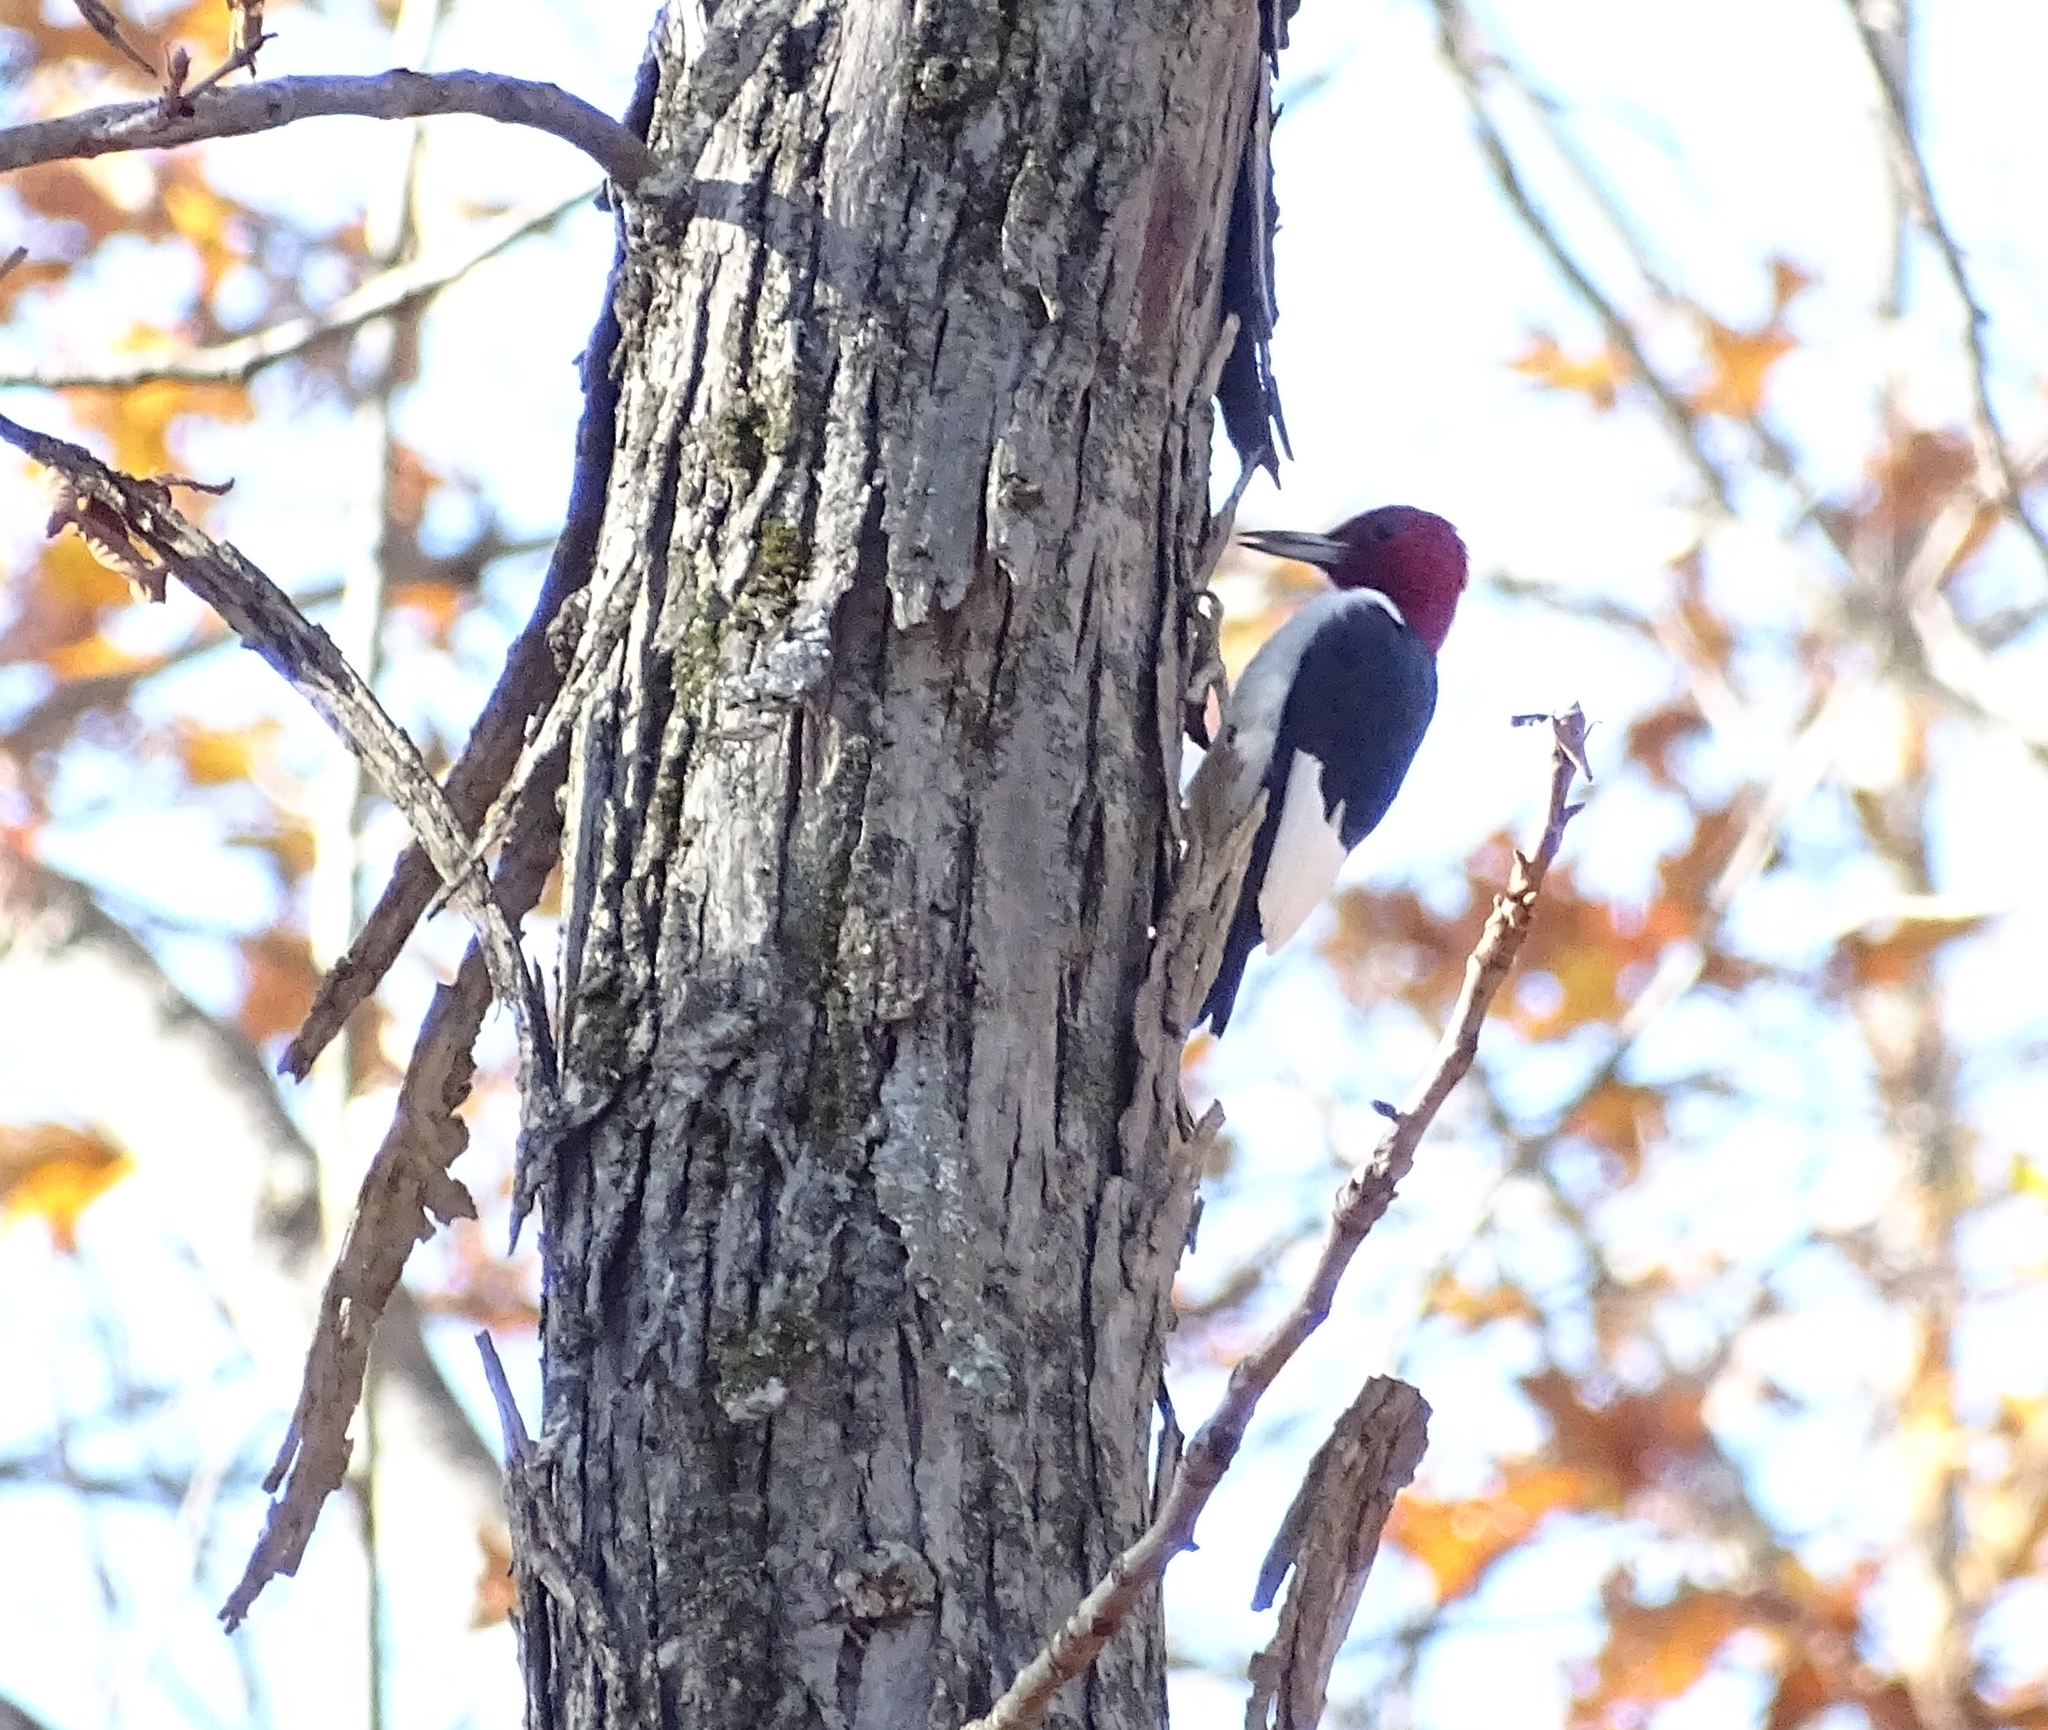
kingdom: Animalia
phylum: Chordata
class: Aves
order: Piciformes
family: Picidae
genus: Melanerpes
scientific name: Melanerpes erythrocephalus
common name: Red-headed woodpecker
